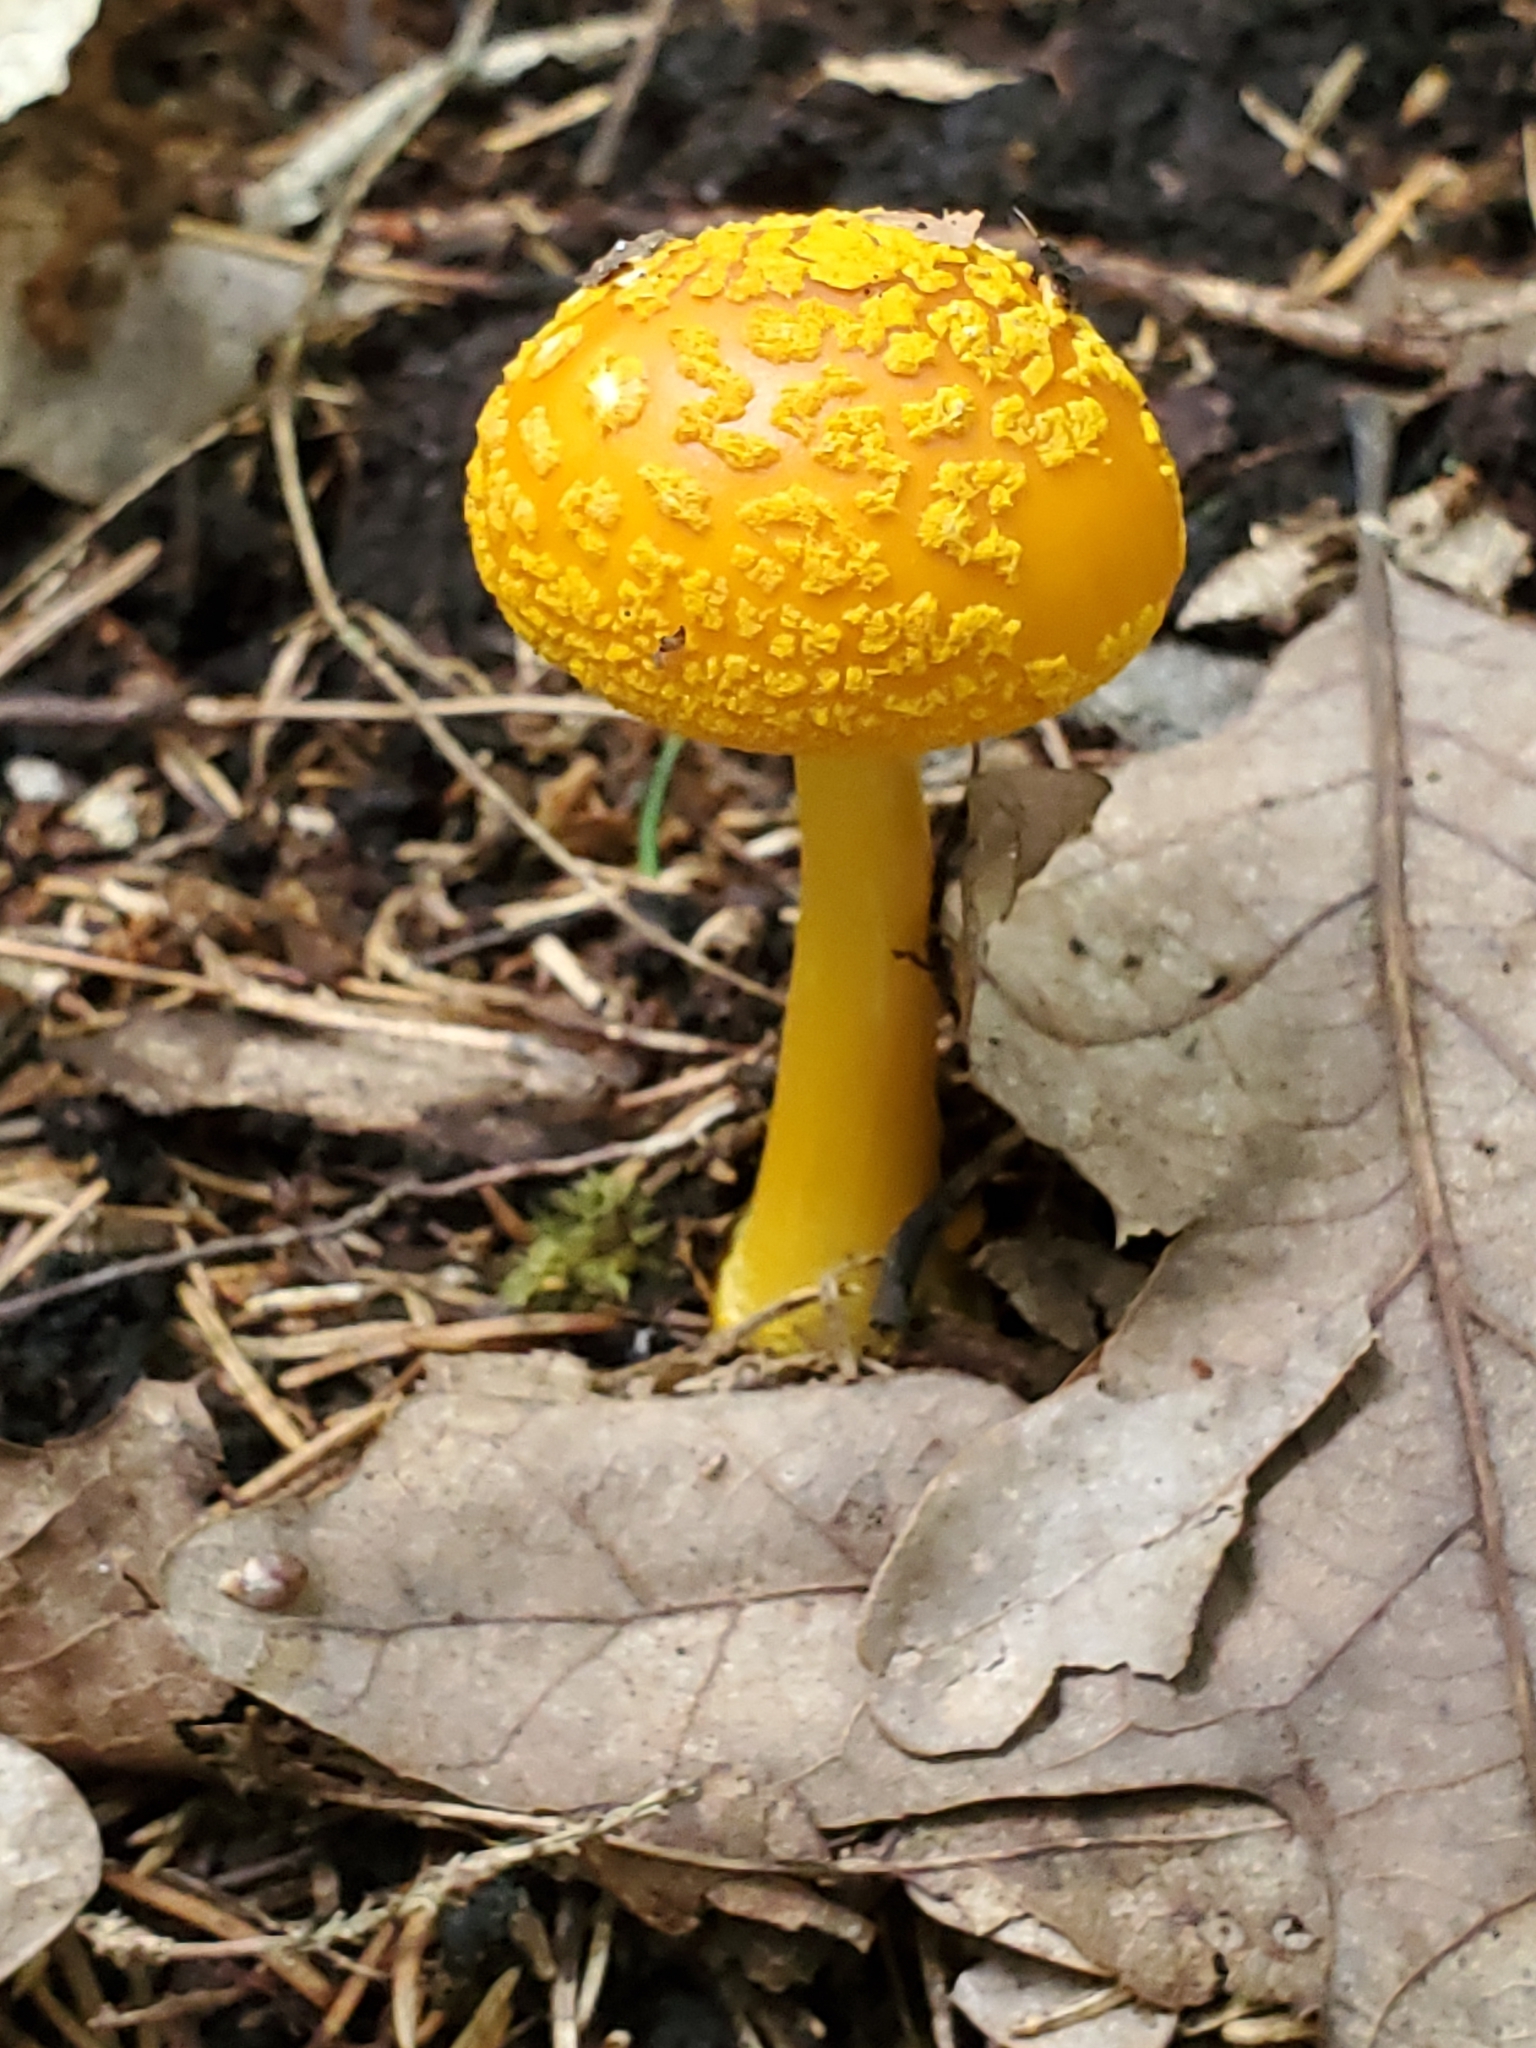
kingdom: Fungi
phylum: Basidiomycota
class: Agaricomycetes
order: Agaricales
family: Amanitaceae
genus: Amanita
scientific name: Amanita flavoconia
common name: Yellow patches
